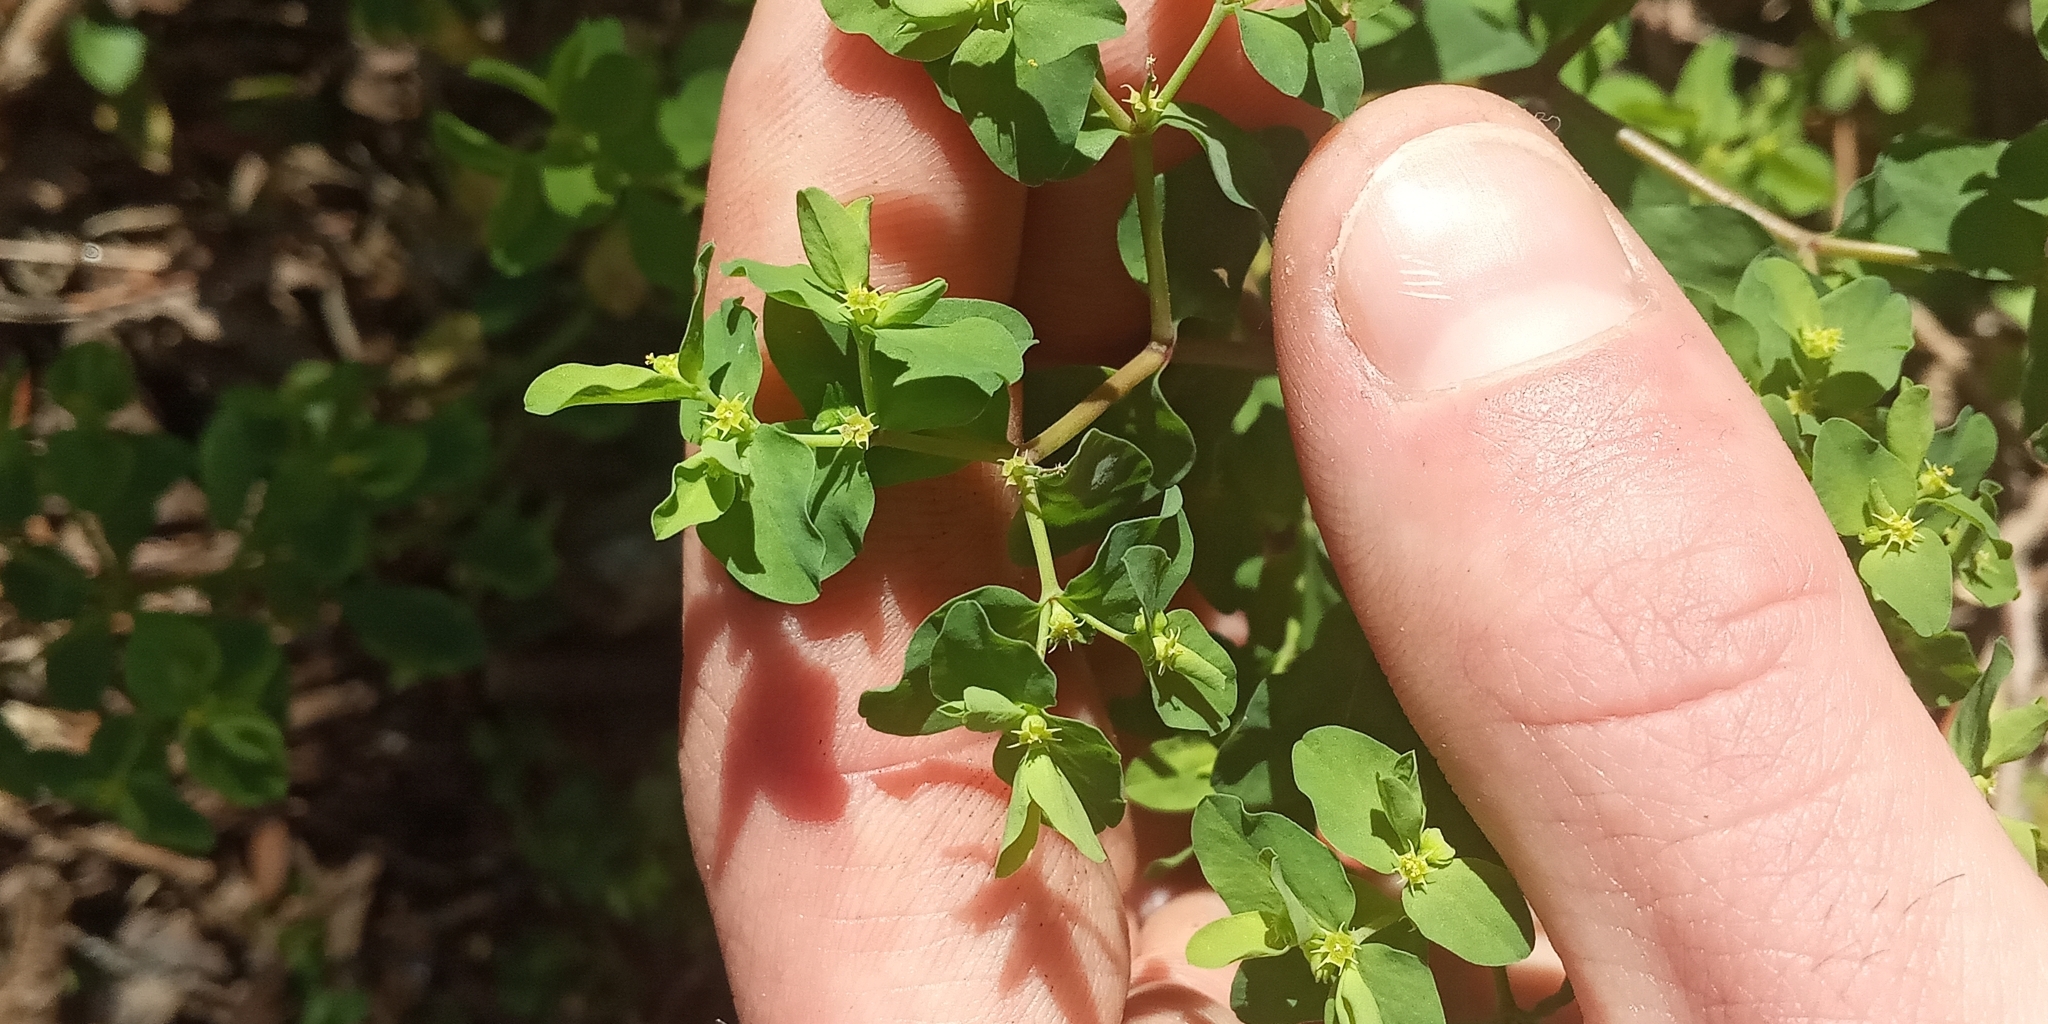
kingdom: Plantae
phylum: Tracheophyta
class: Magnoliopsida
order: Malpighiales
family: Euphorbiaceae
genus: Euphorbia
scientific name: Euphorbia peplus
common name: Petty spurge
